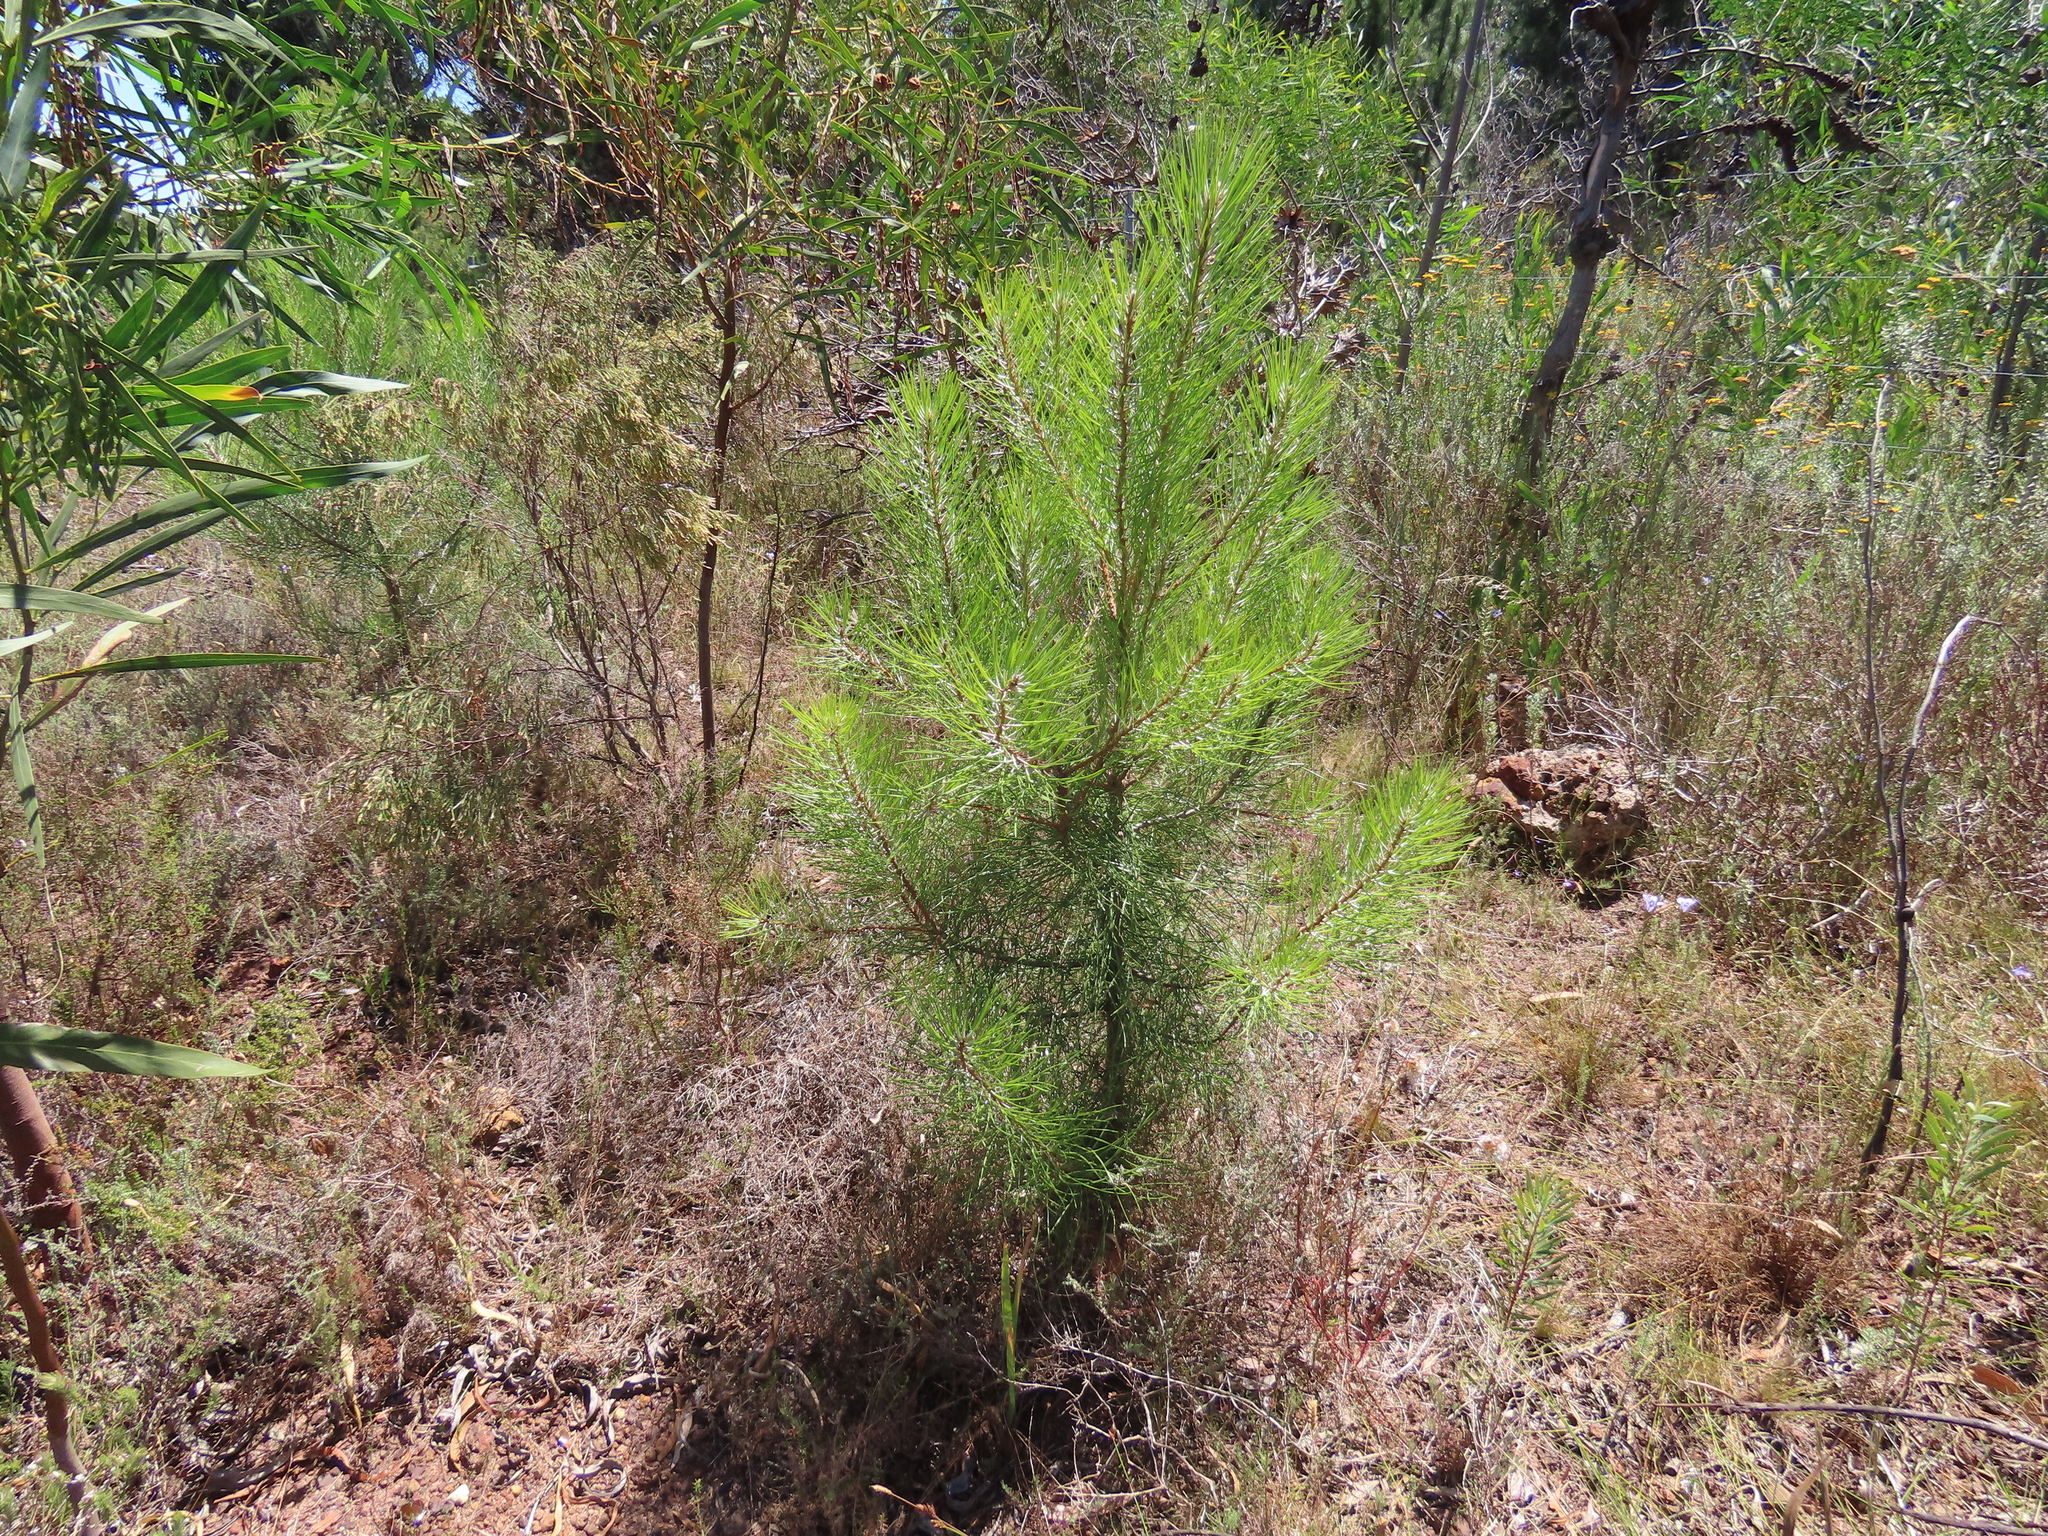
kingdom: Plantae
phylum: Tracheophyta
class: Pinopsida
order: Pinales
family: Pinaceae
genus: Pinus
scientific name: Pinus pinaster
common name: Maritime pine
